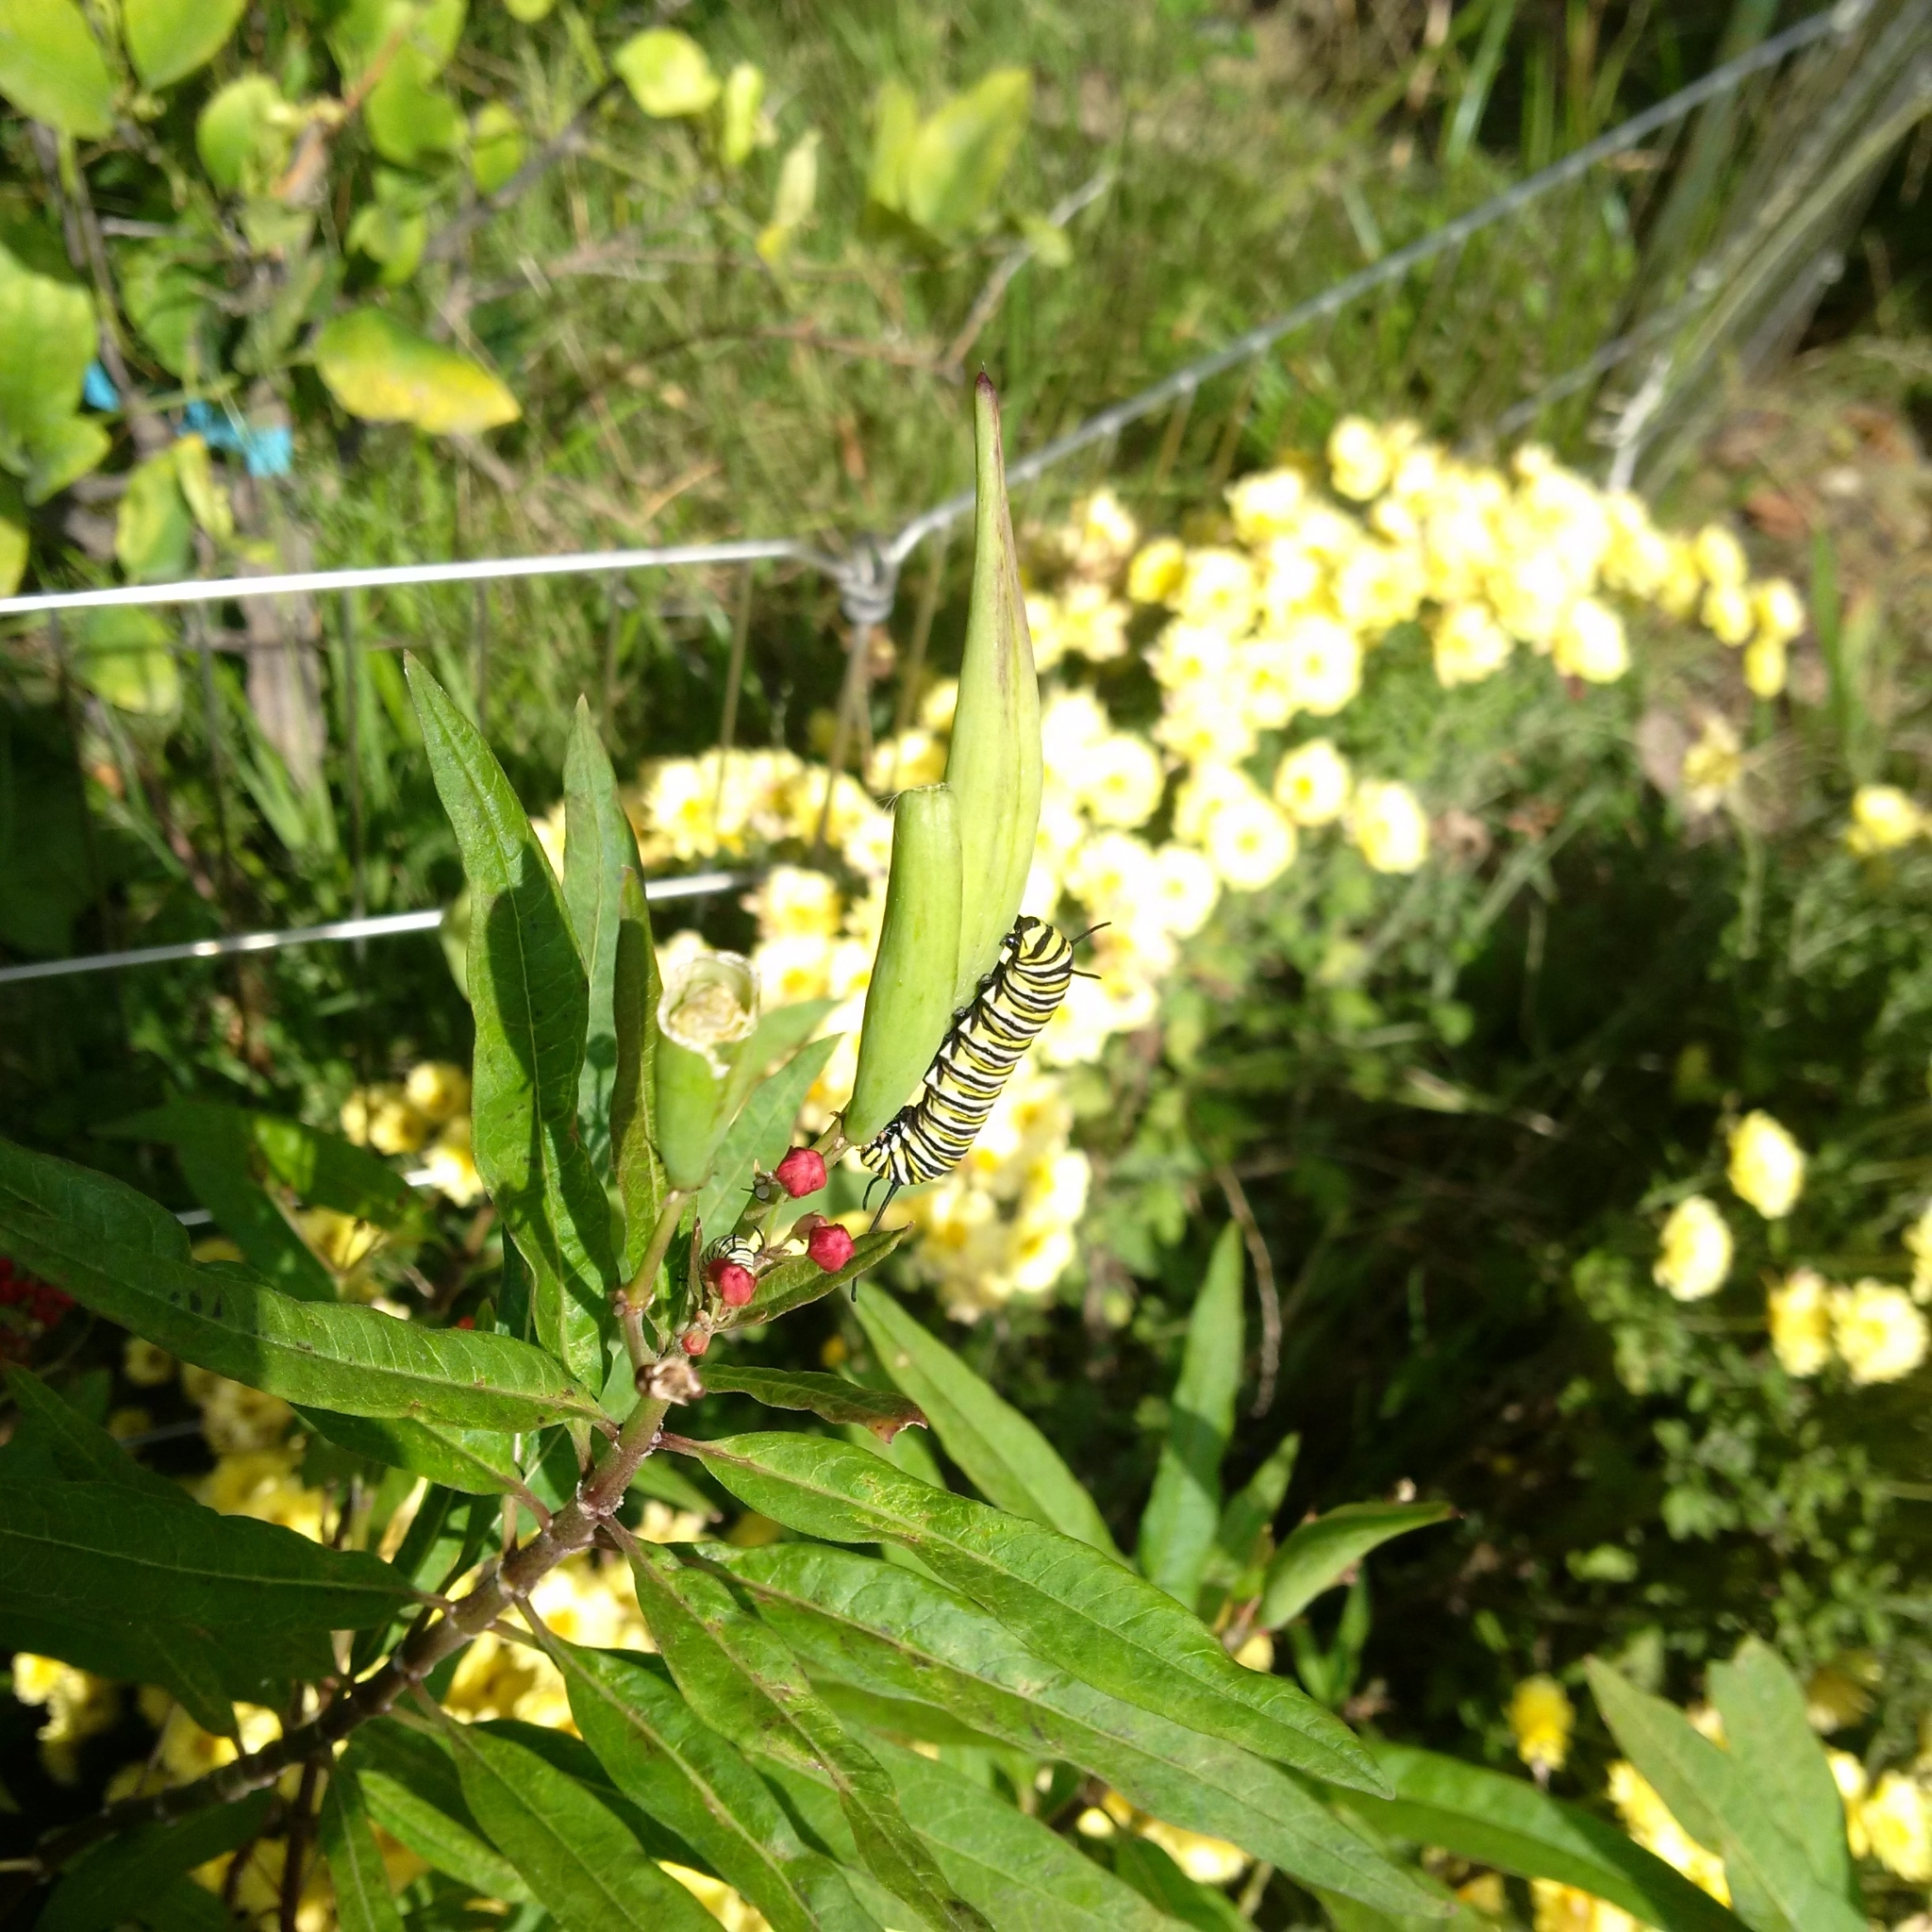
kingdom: Animalia
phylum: Arthropoda
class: Insecta
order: Lepidoptera
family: Nymphalidae
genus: Danaus
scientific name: Danaus plexippus
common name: Monarch
